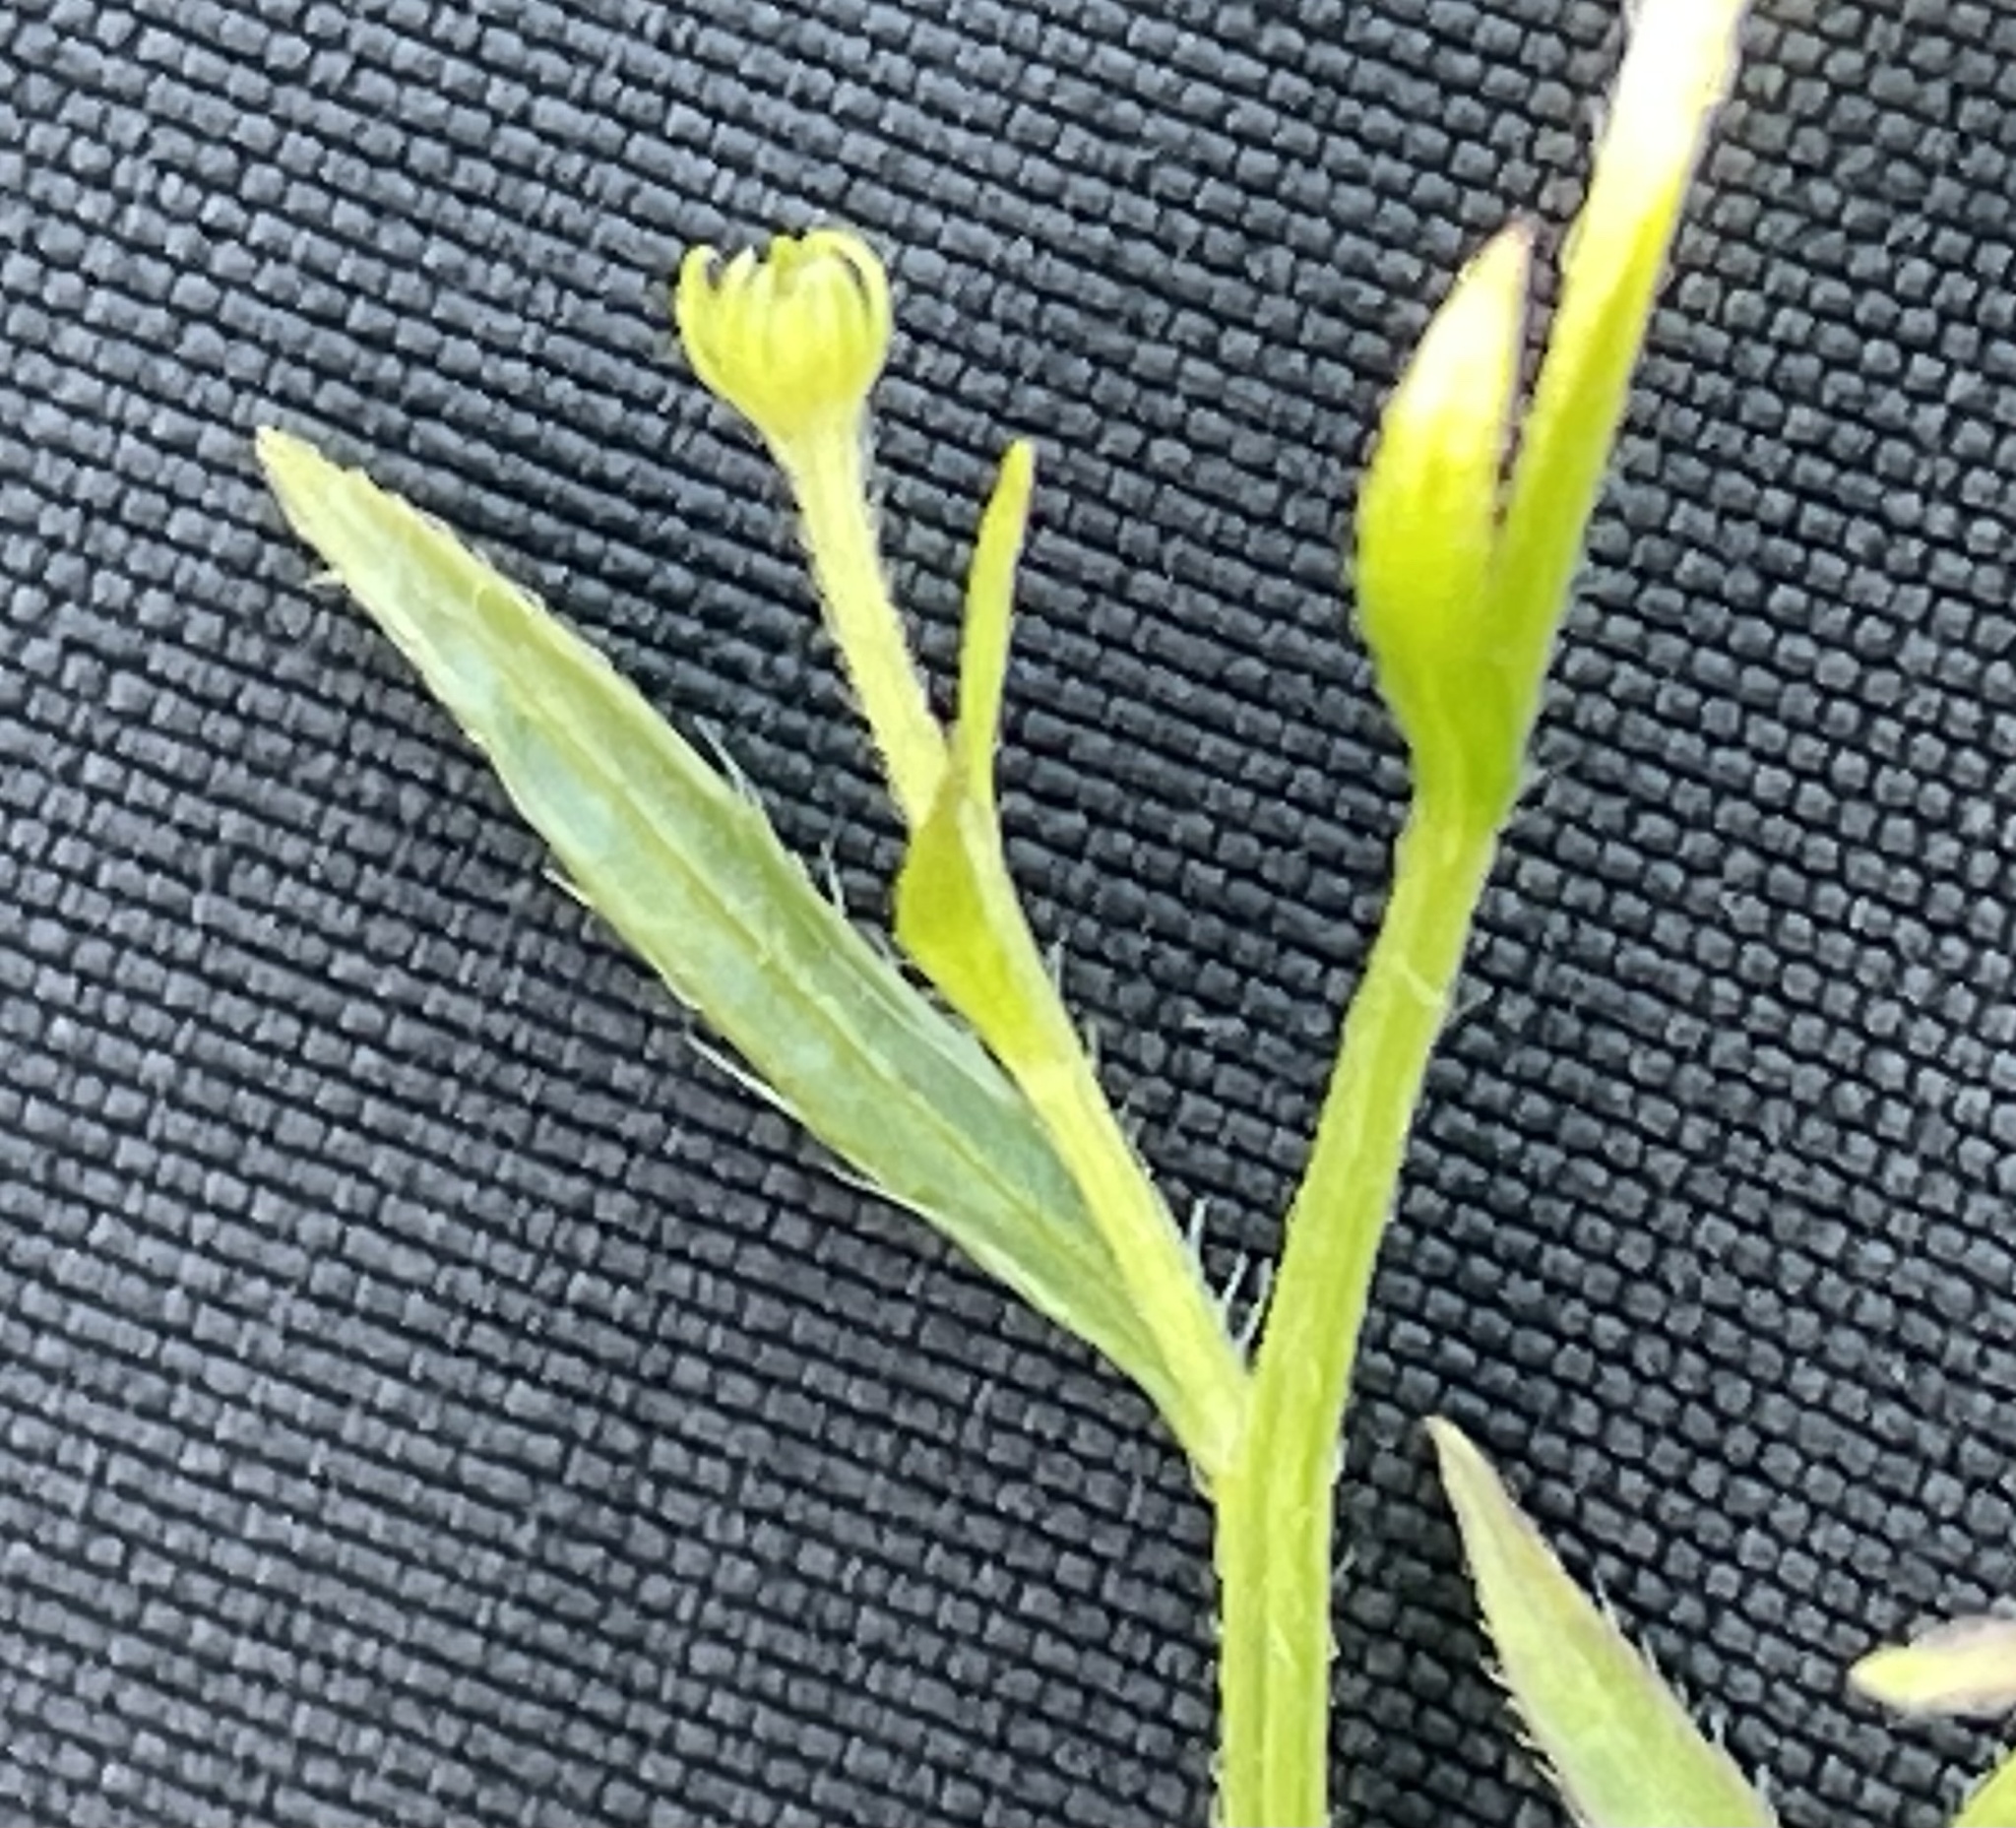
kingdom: Plantae
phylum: Tracheophyta
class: Magnoliopsida
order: Asterales
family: Asteraceae
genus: Erigeron
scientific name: Erigeron canadensis
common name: Canadian fleabane
